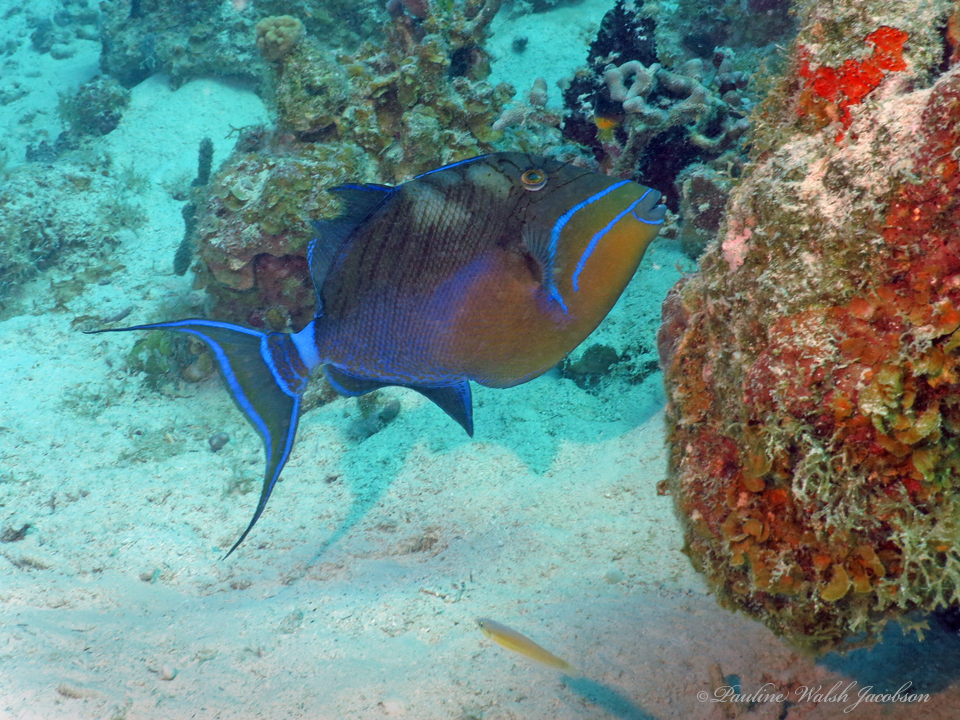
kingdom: Animalia
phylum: Chordata
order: Tetraodontiformes
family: Balistidae
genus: Balistes
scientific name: Balistes vetula
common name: Queen triggerfish
